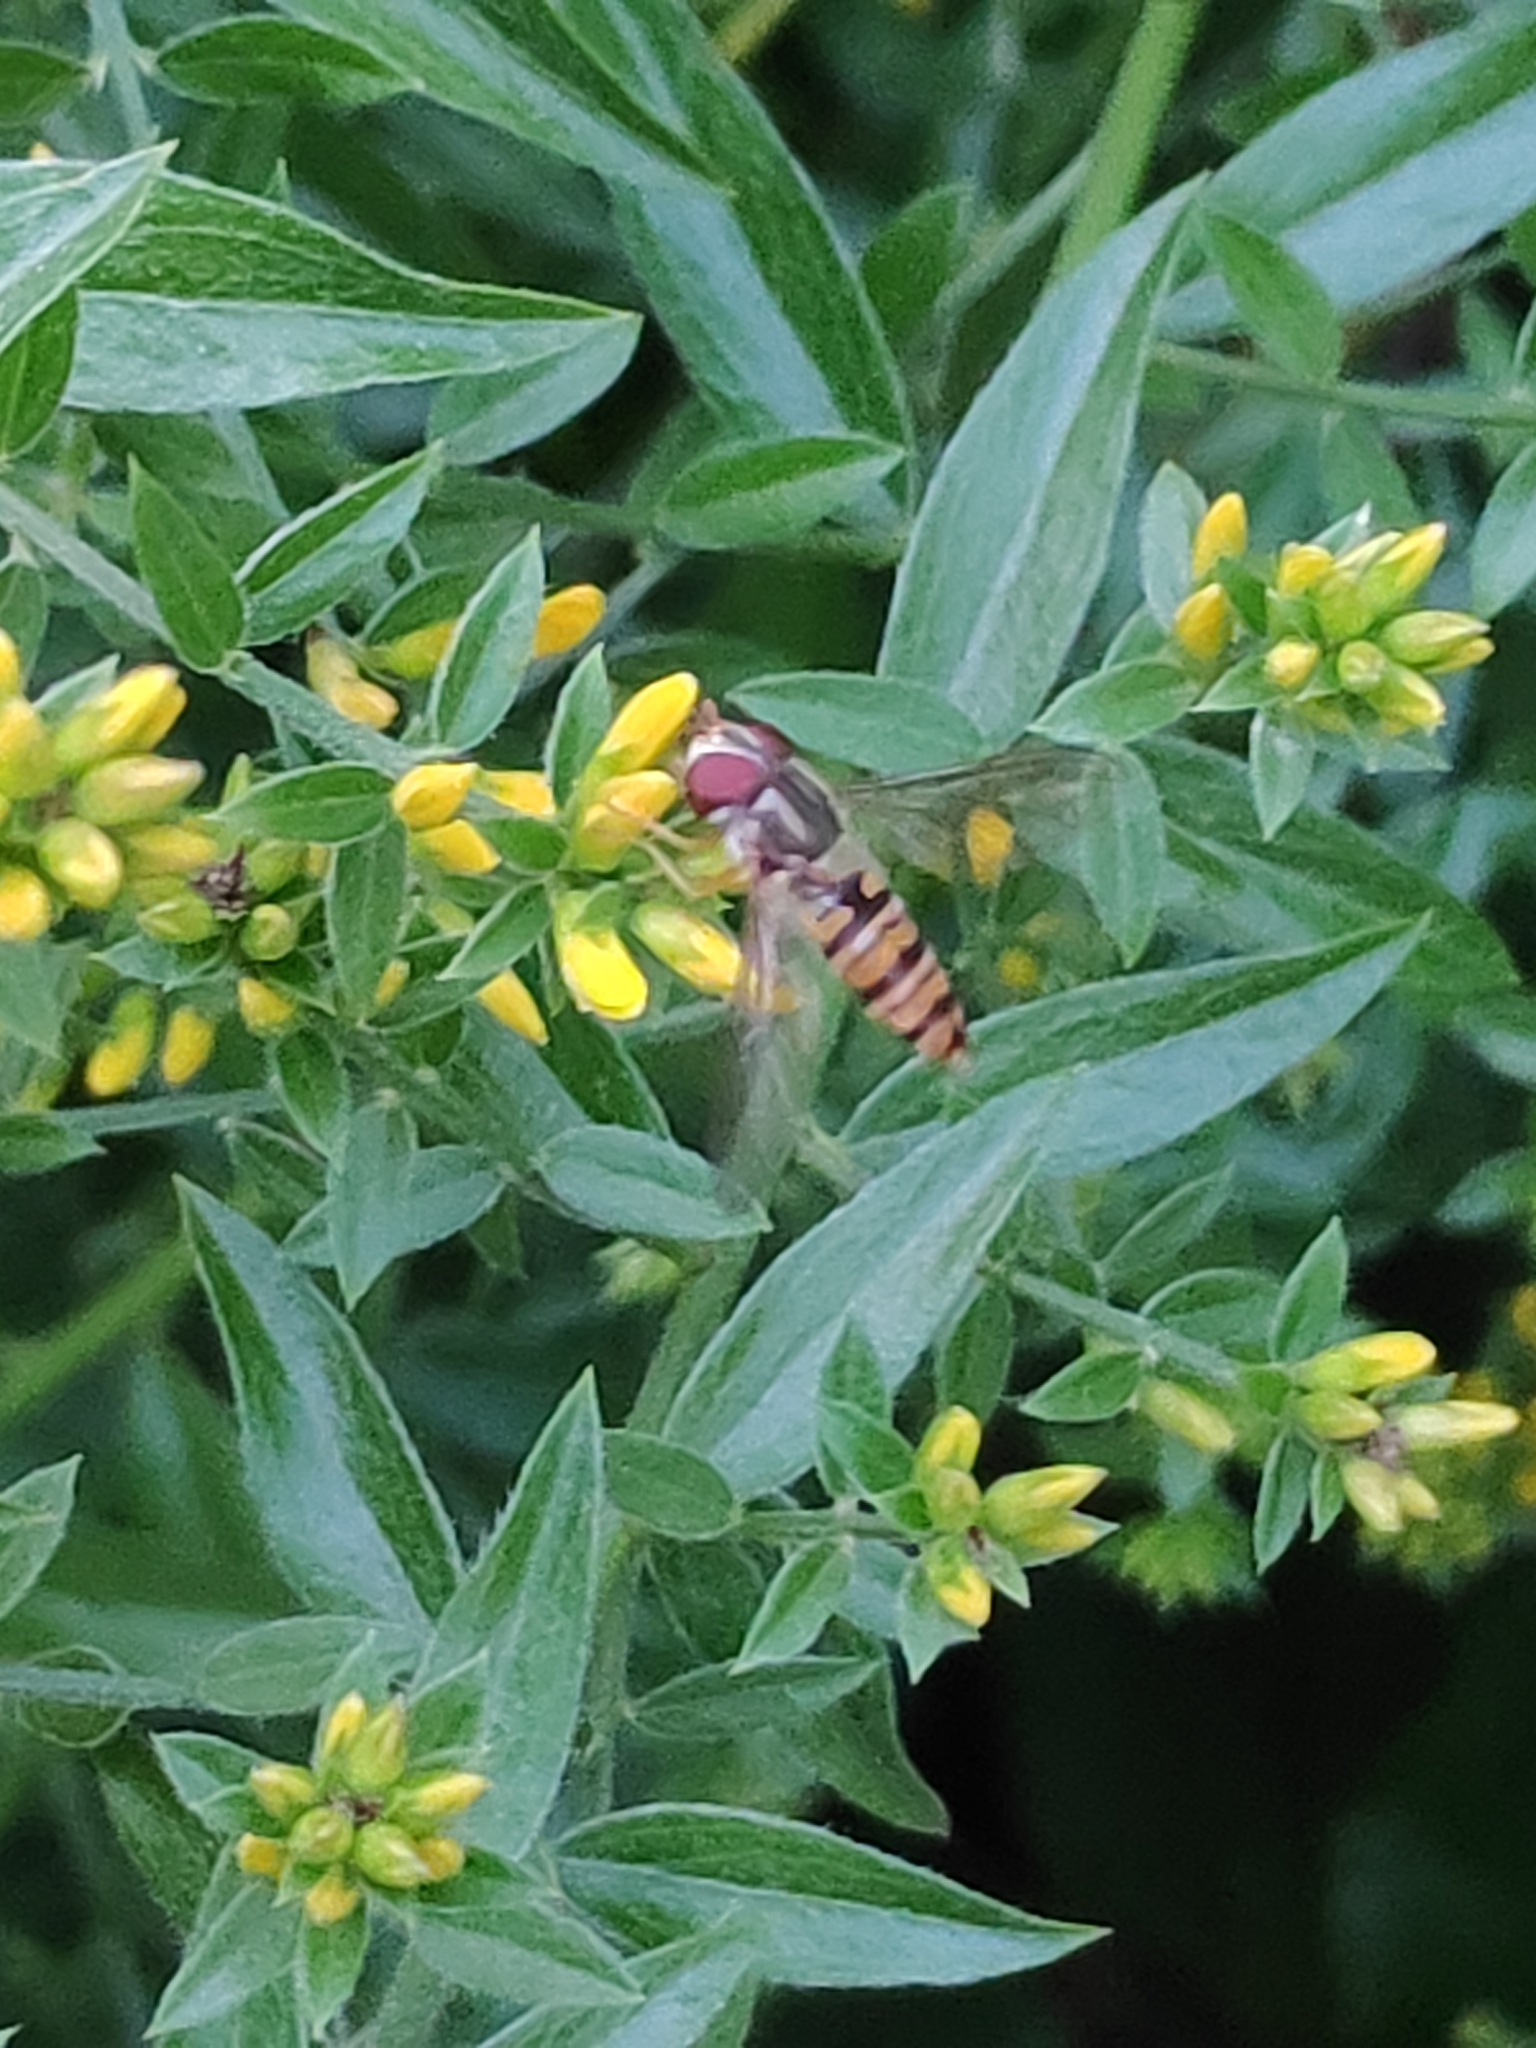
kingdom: Animalia
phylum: Arthropoda
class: Insecta
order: Diptera
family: Syrphidae
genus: Episyrphus
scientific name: Episyrphus balteatus
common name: Marmalade hoverfly
